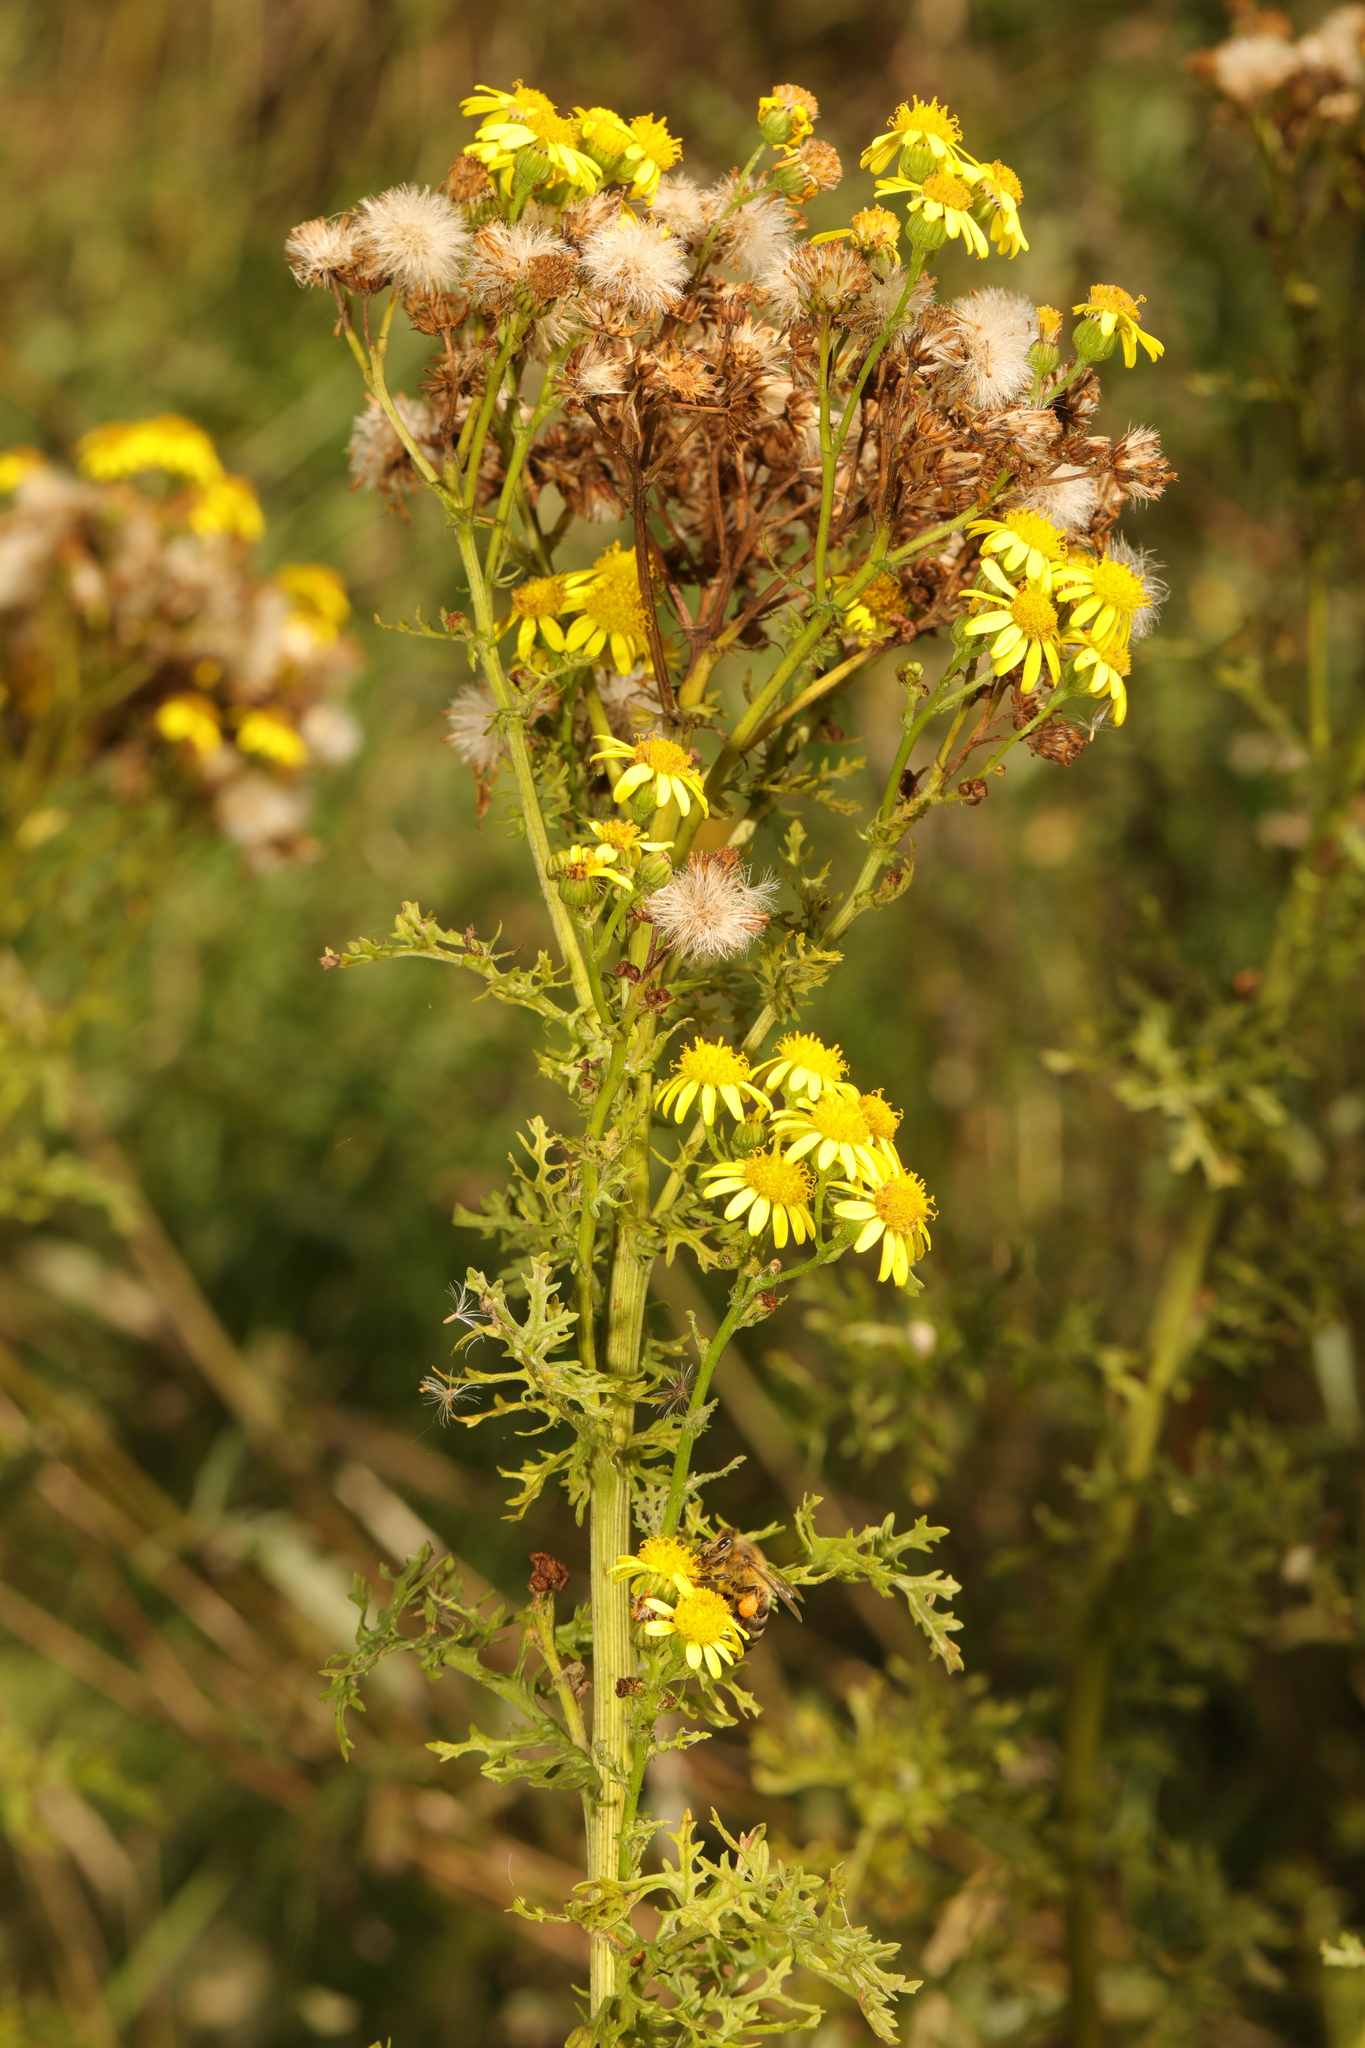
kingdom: Plantae
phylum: Tracheophyta
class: Magnoliopsida
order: Asterales
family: Asteraceae
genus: Jacobaea
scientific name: Jacobaea vulgaris
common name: Stinking willie
